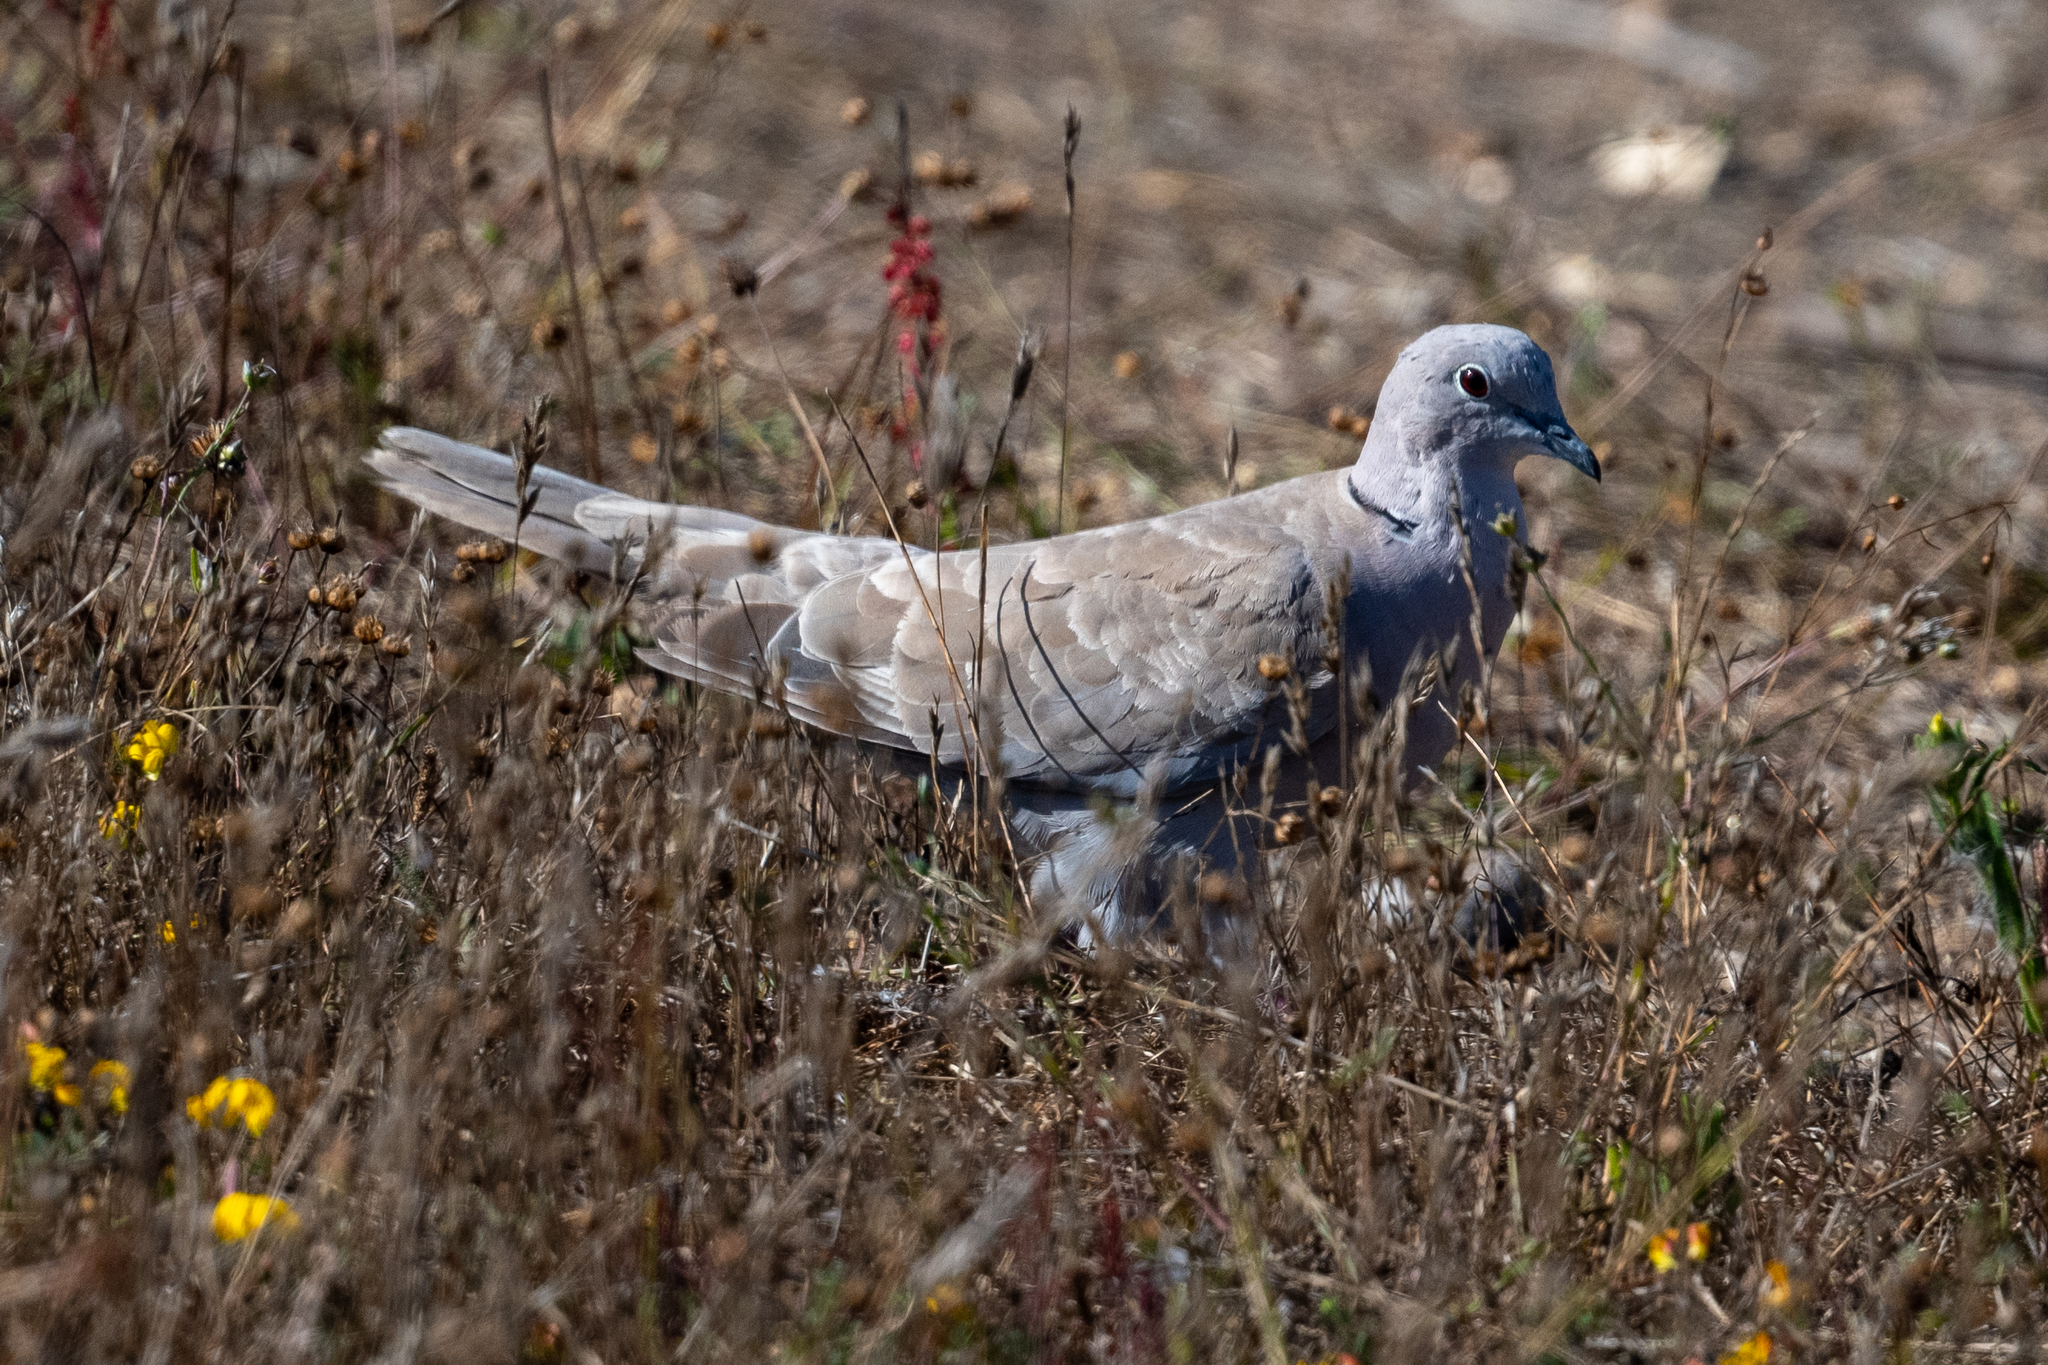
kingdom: Animalia
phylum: Chordata
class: Aves
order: Columbiformes
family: Columbidae
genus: Streptopelia
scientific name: Streptopelia decaocto
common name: Eurasian collared dove
